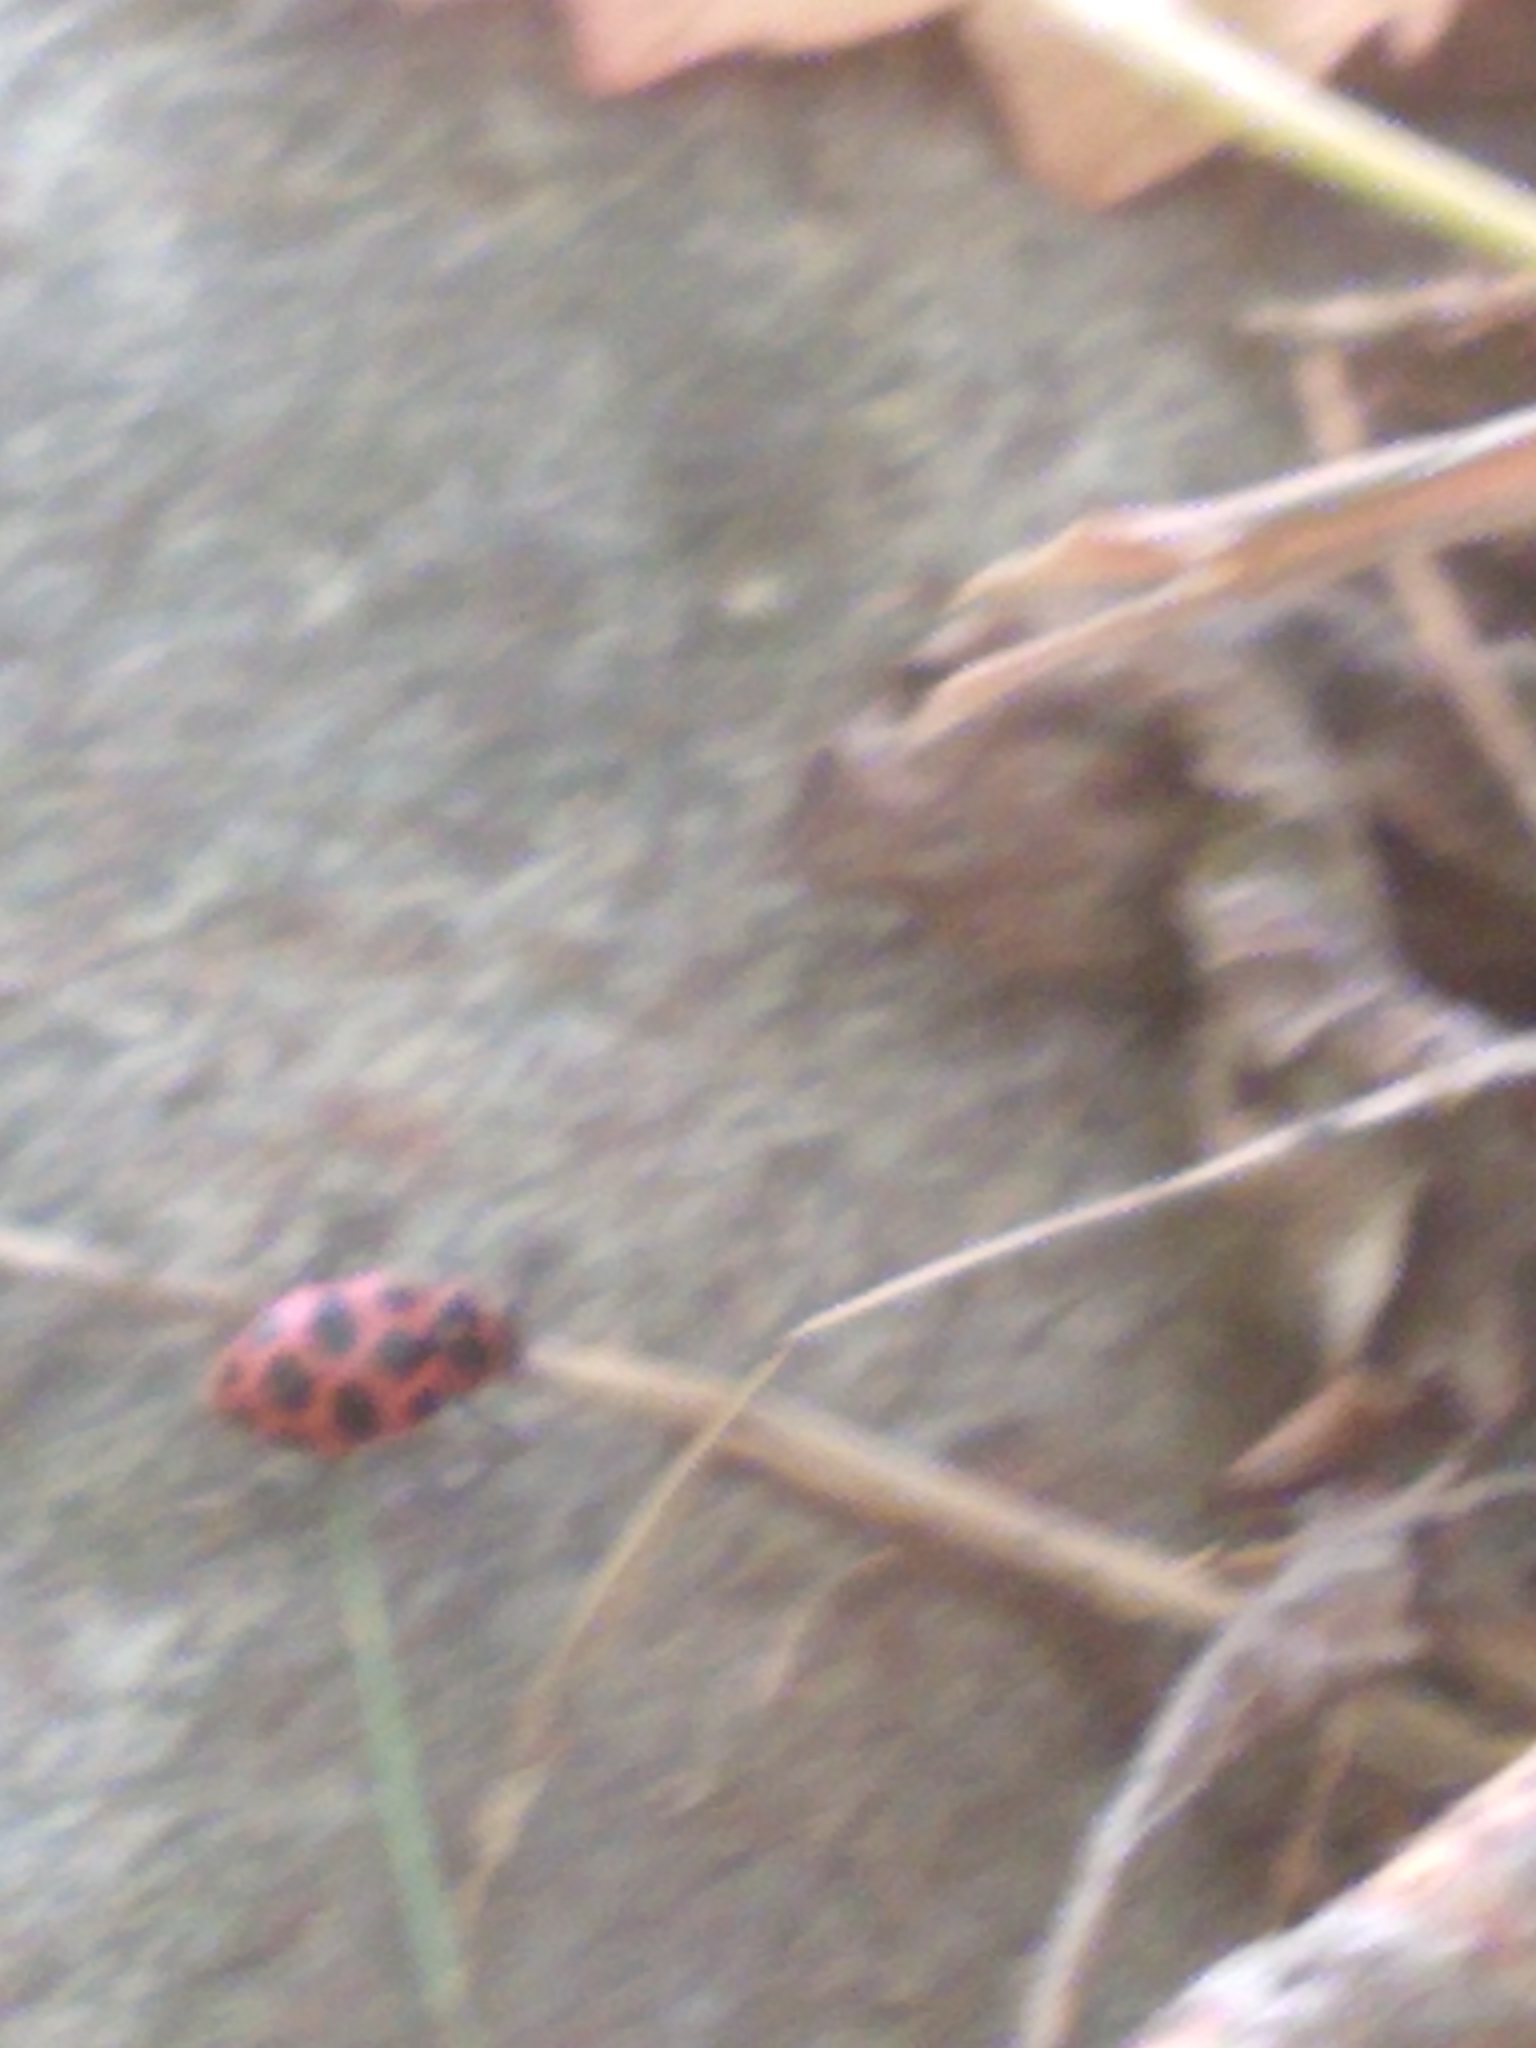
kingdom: Animalia
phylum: Arthropoda
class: Insecta
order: Coleoptera
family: Coccinellidae
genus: Coleomegilla
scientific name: Coleomegilla maculata
